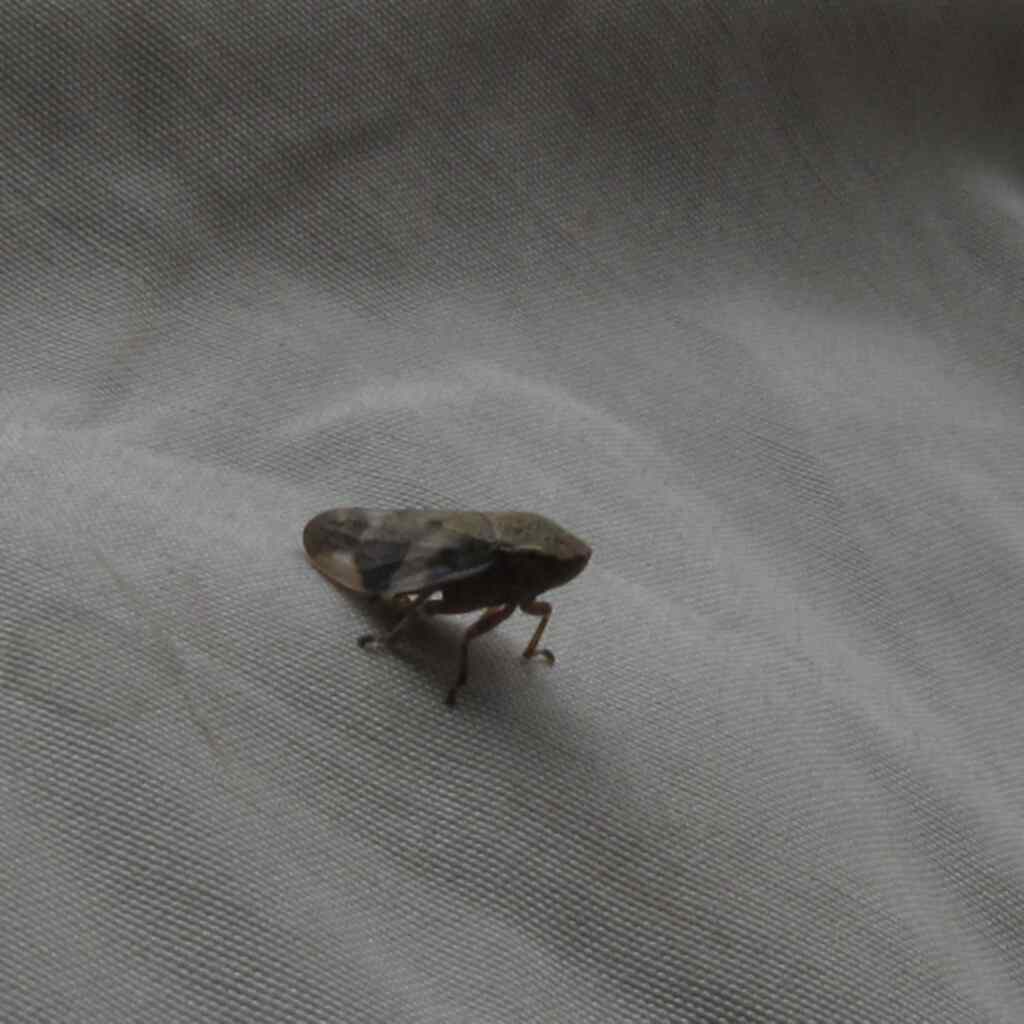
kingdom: Animalia
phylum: Arthropoda
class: Insecta
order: Hemiptera
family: Aphrophoridae
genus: Aphrophora
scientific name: Aphrophora alni
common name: European alder spittlebug
